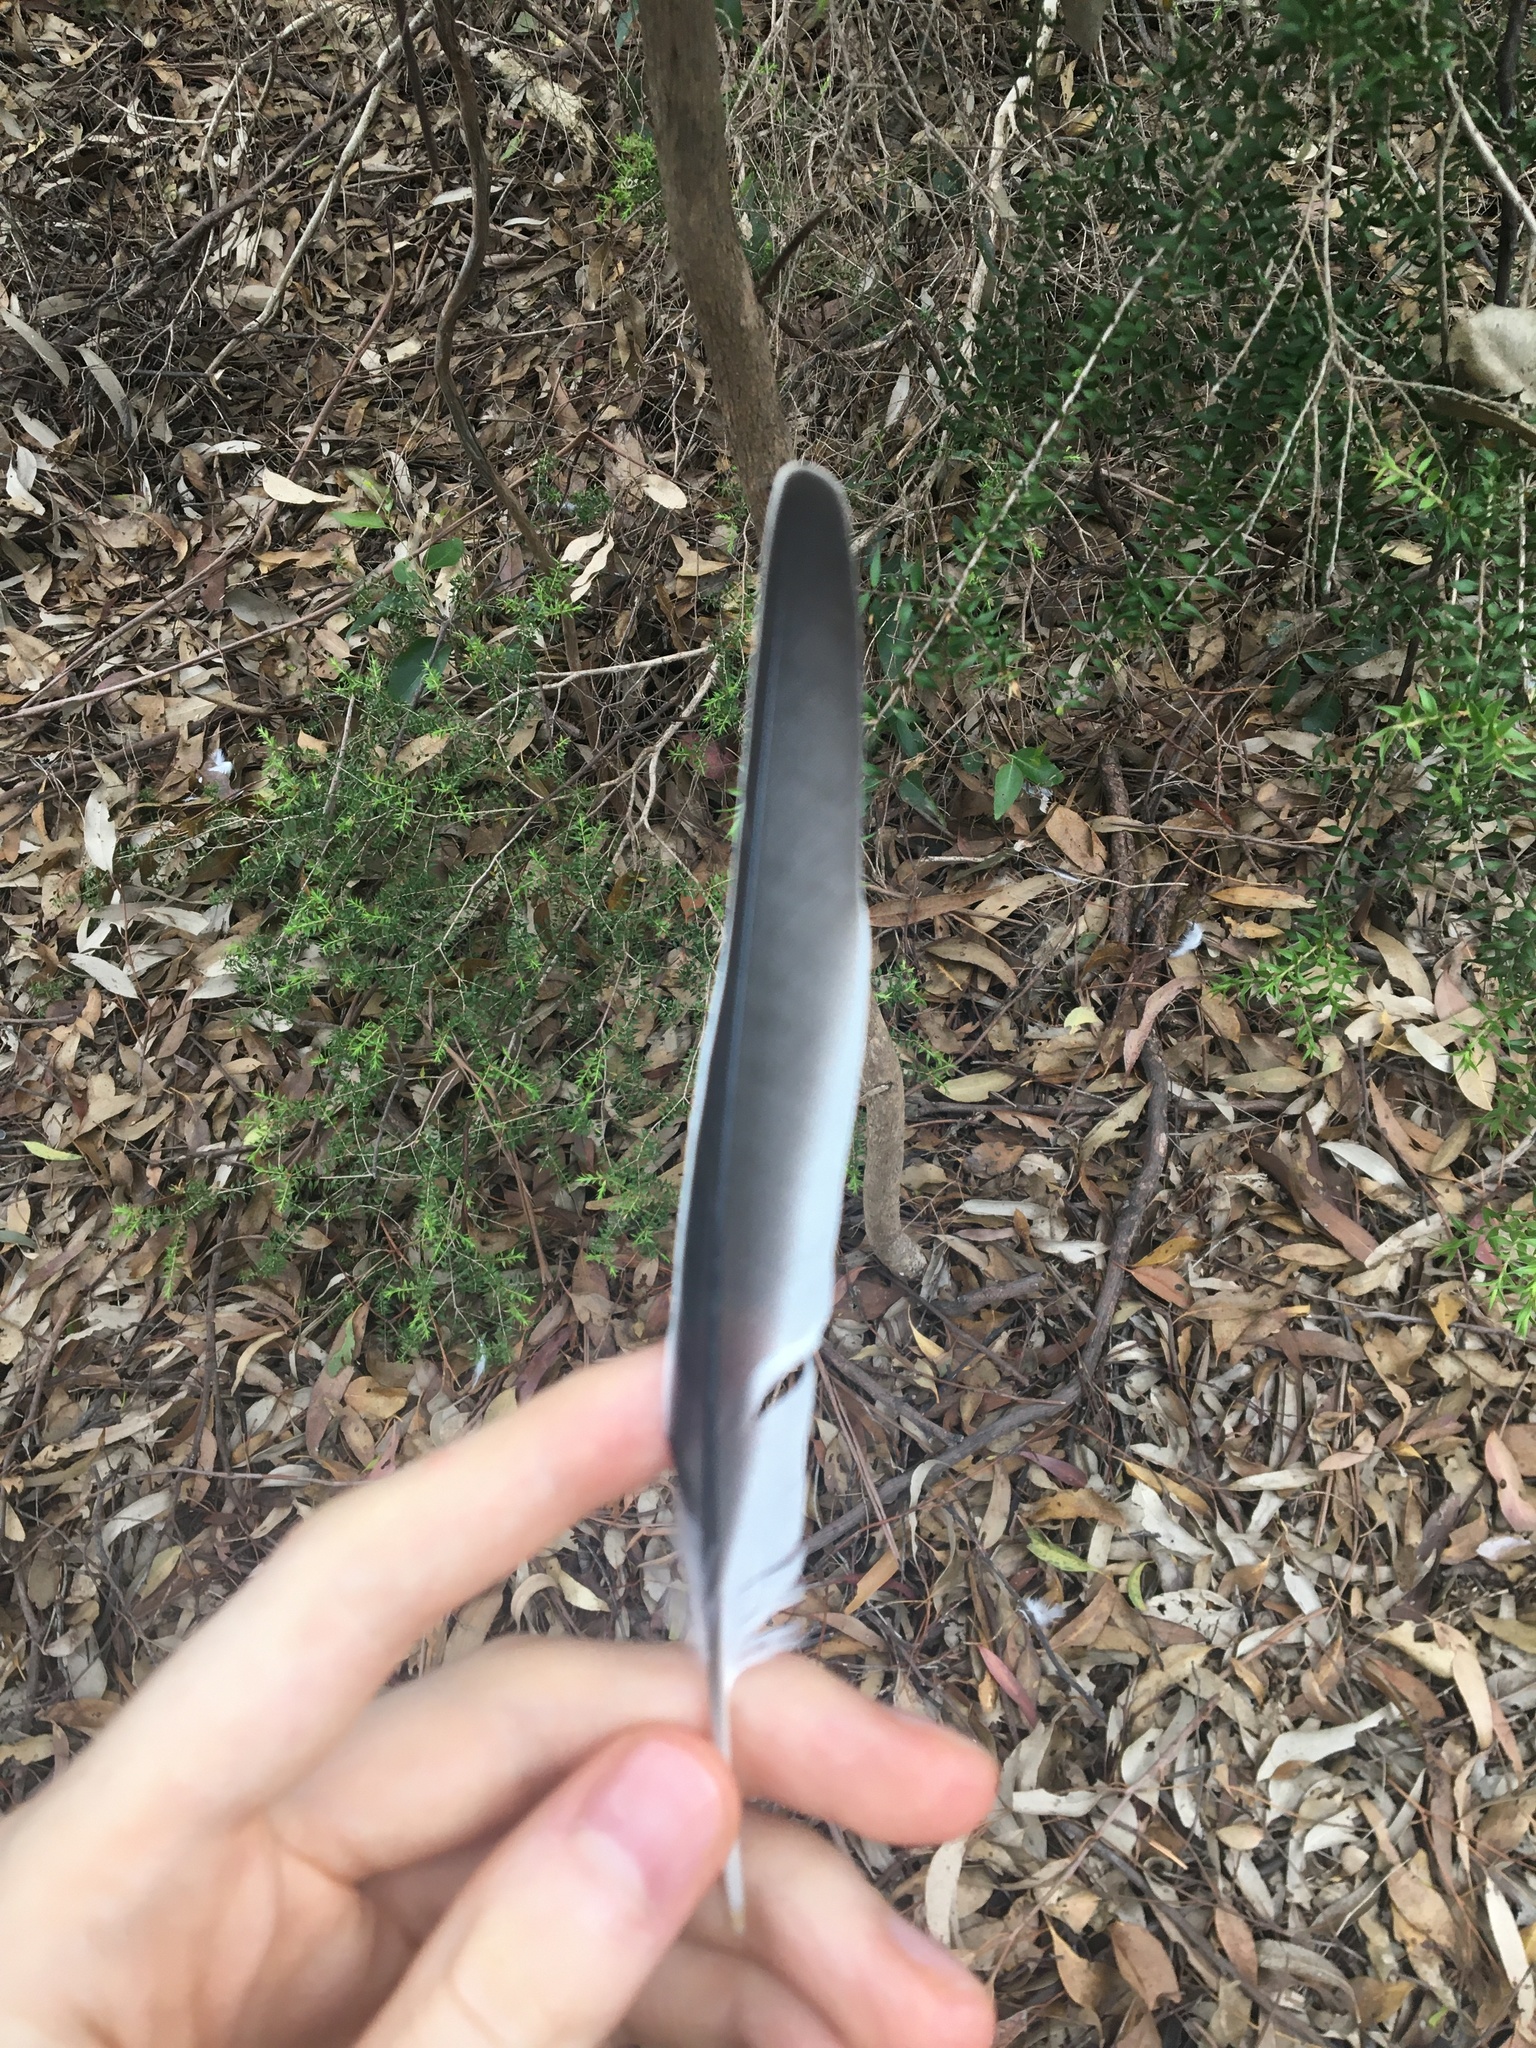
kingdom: Animalia
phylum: Chordata
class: Aves
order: Passeriformes
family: Campephagidae
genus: Coracina
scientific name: Coracina novaehollandiae
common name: Black-faced cuckooshrike
